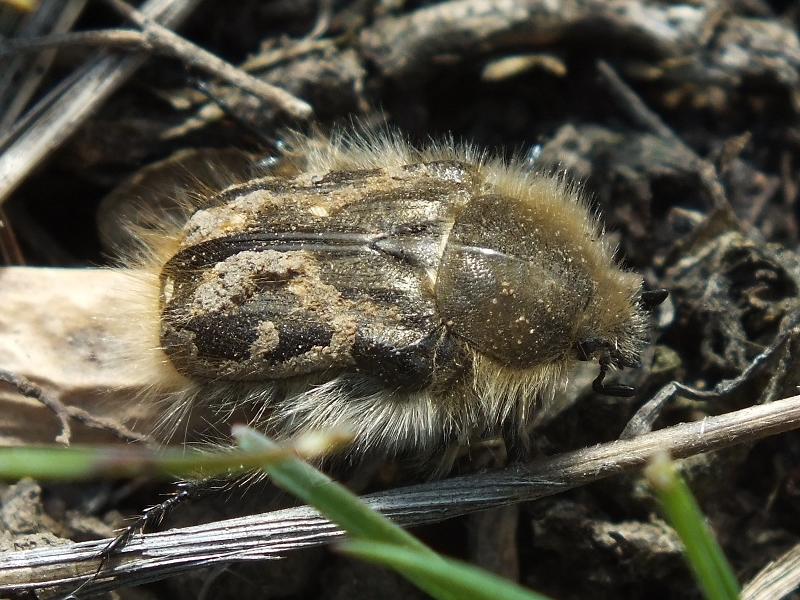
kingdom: Animalia
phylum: Arthropoda
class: Insecta
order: Coleoptera
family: Scarabaeidae
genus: Tropinota
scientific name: Tropinota hirta
